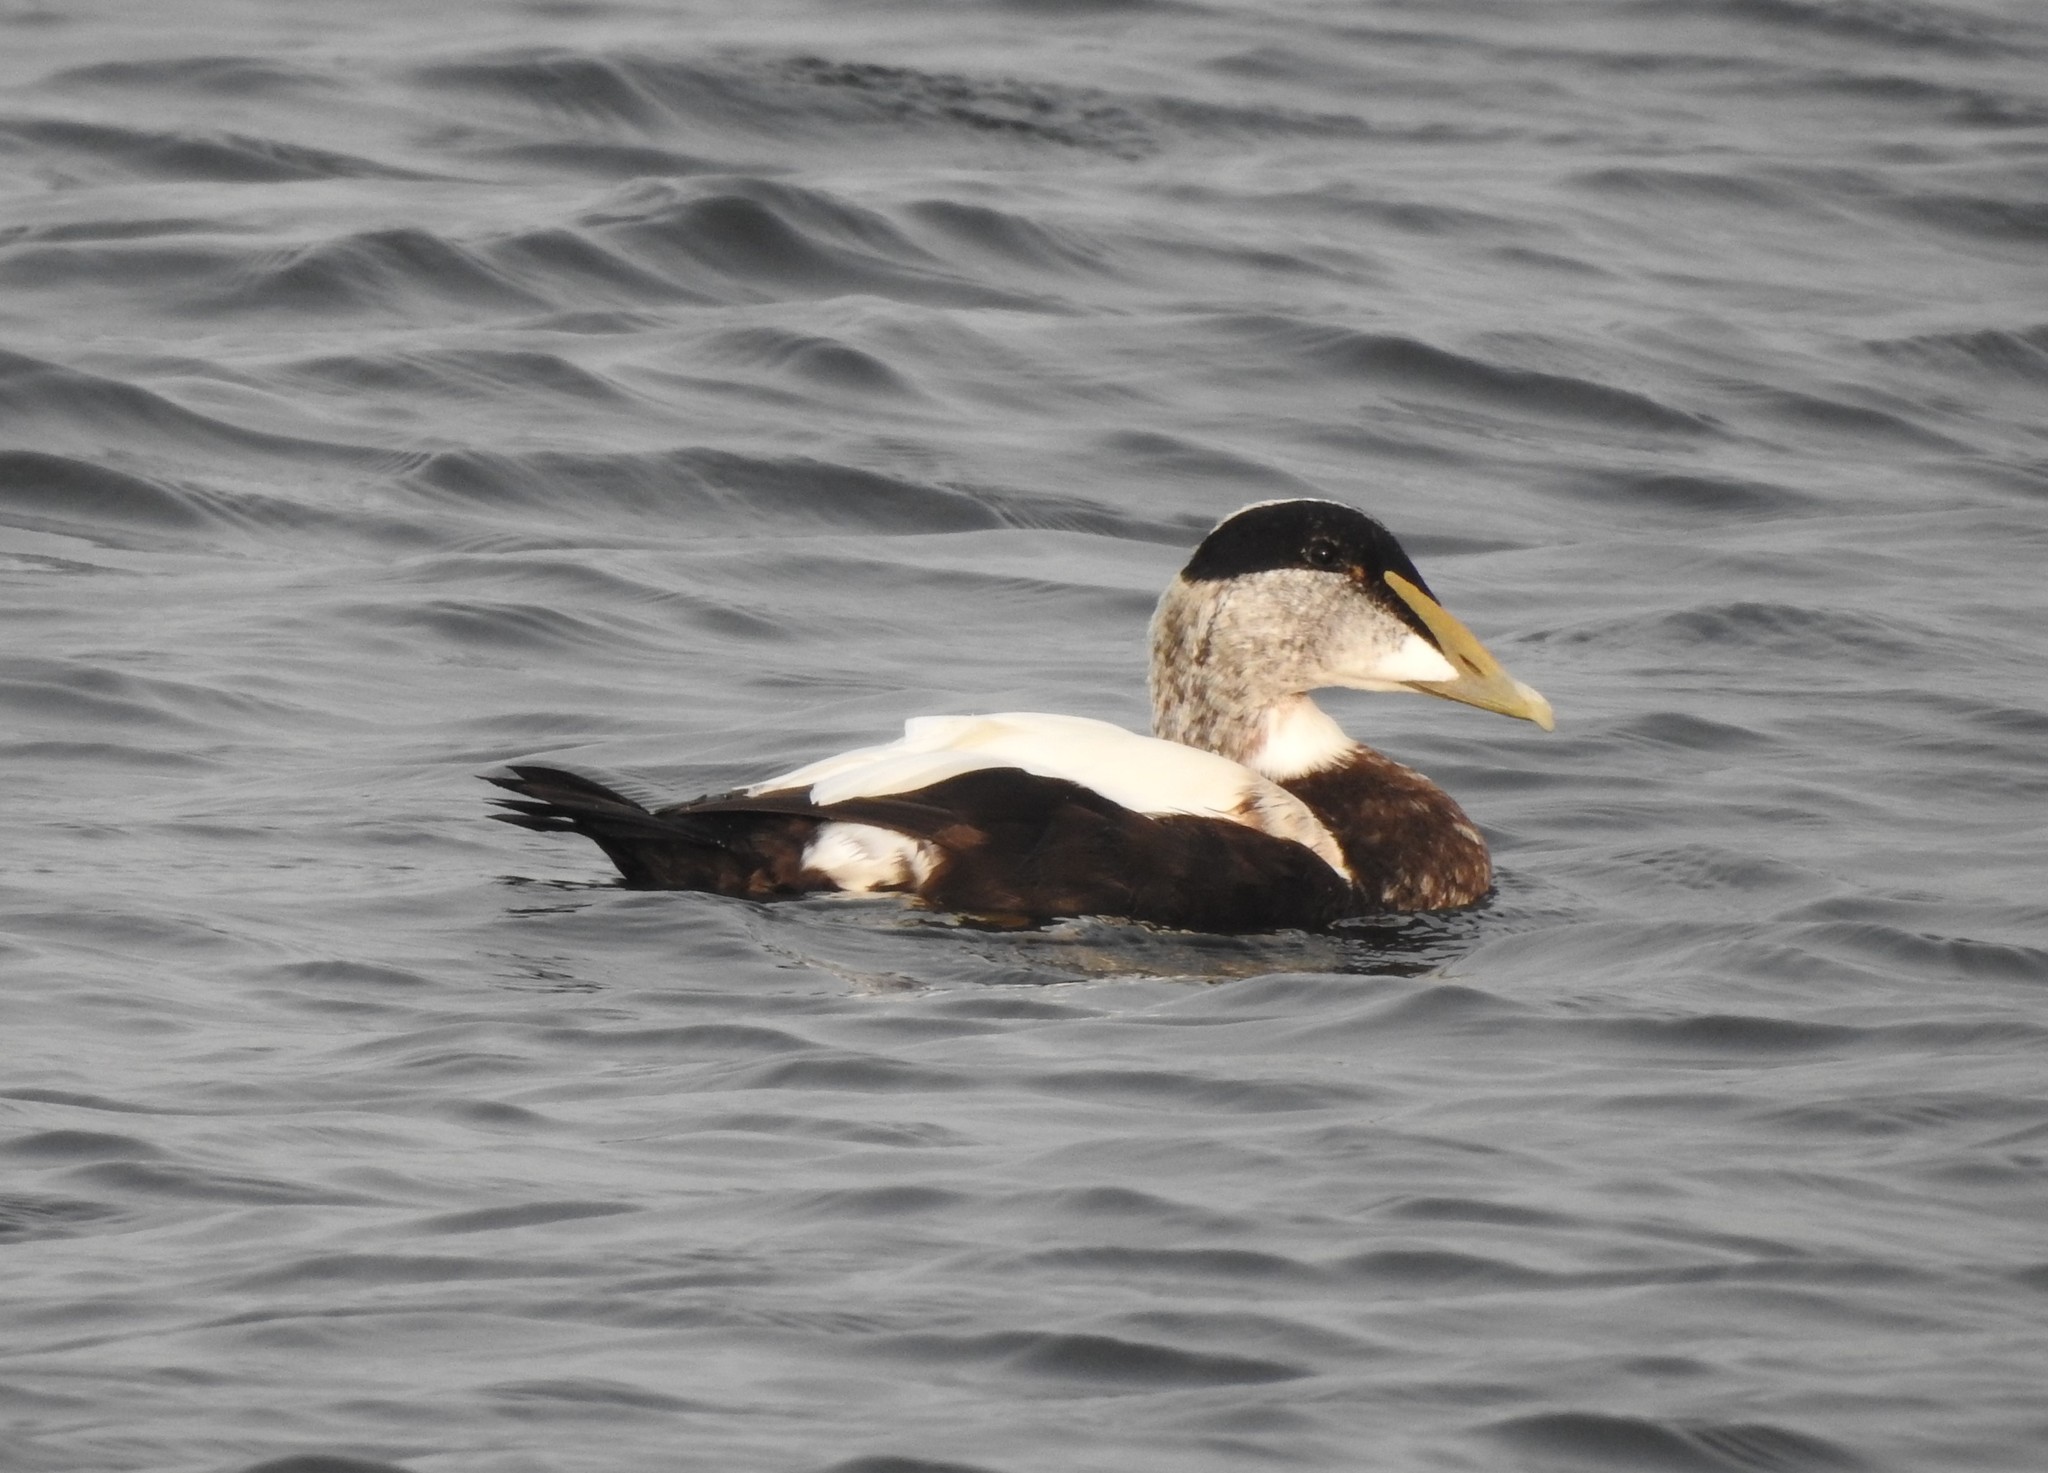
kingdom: Animalia
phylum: Chordata
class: Aves
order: Anseriformes
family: Anatidae
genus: Somateria
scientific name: Somateria mollissima
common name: Common eider
